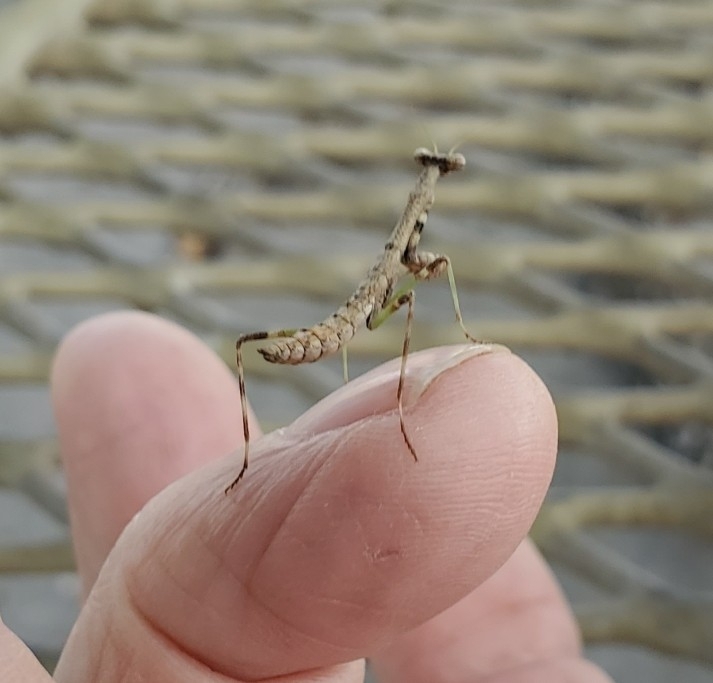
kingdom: Animalia
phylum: Arthropoda
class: Insecta
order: Mantodea
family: Mantidae
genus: Stagmomantis
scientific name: Stagmomantis carolina
